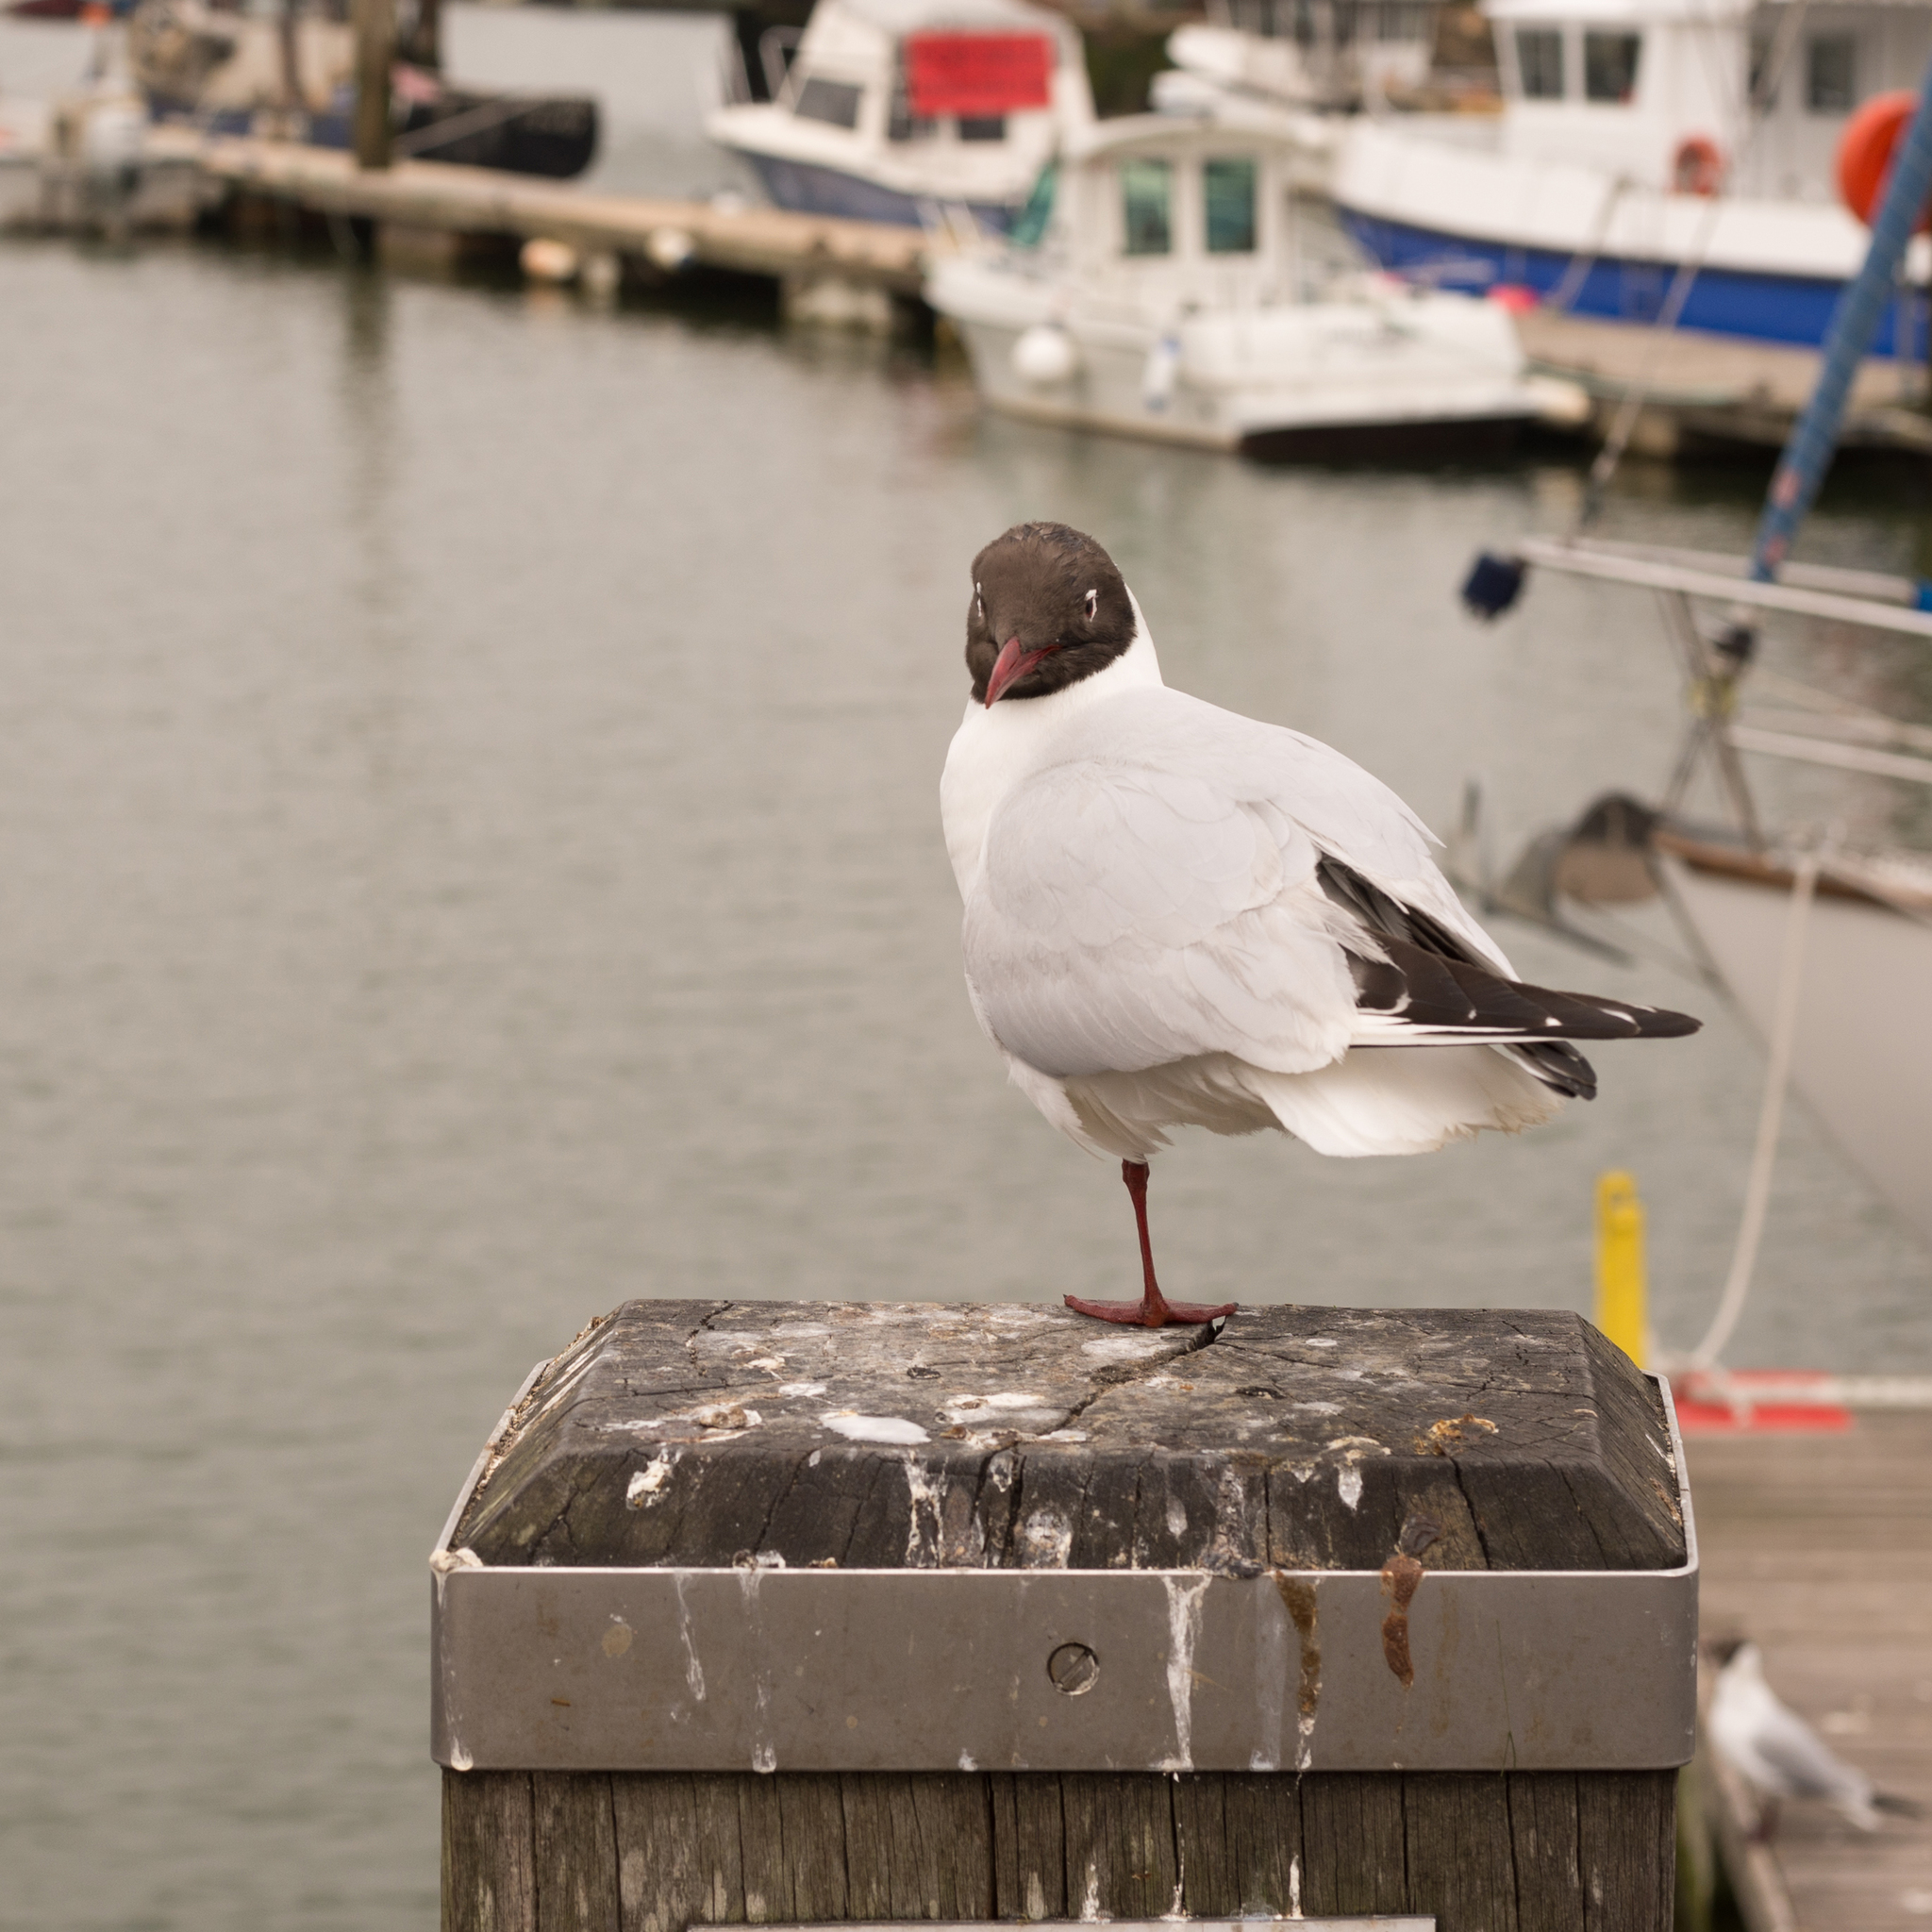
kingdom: Animalia
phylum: Chordata
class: Aves
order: Charadriiformes
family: Laridae
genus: Chroicocephalus
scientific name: Chroicocephalus ridibundus
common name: Black-headed gull
